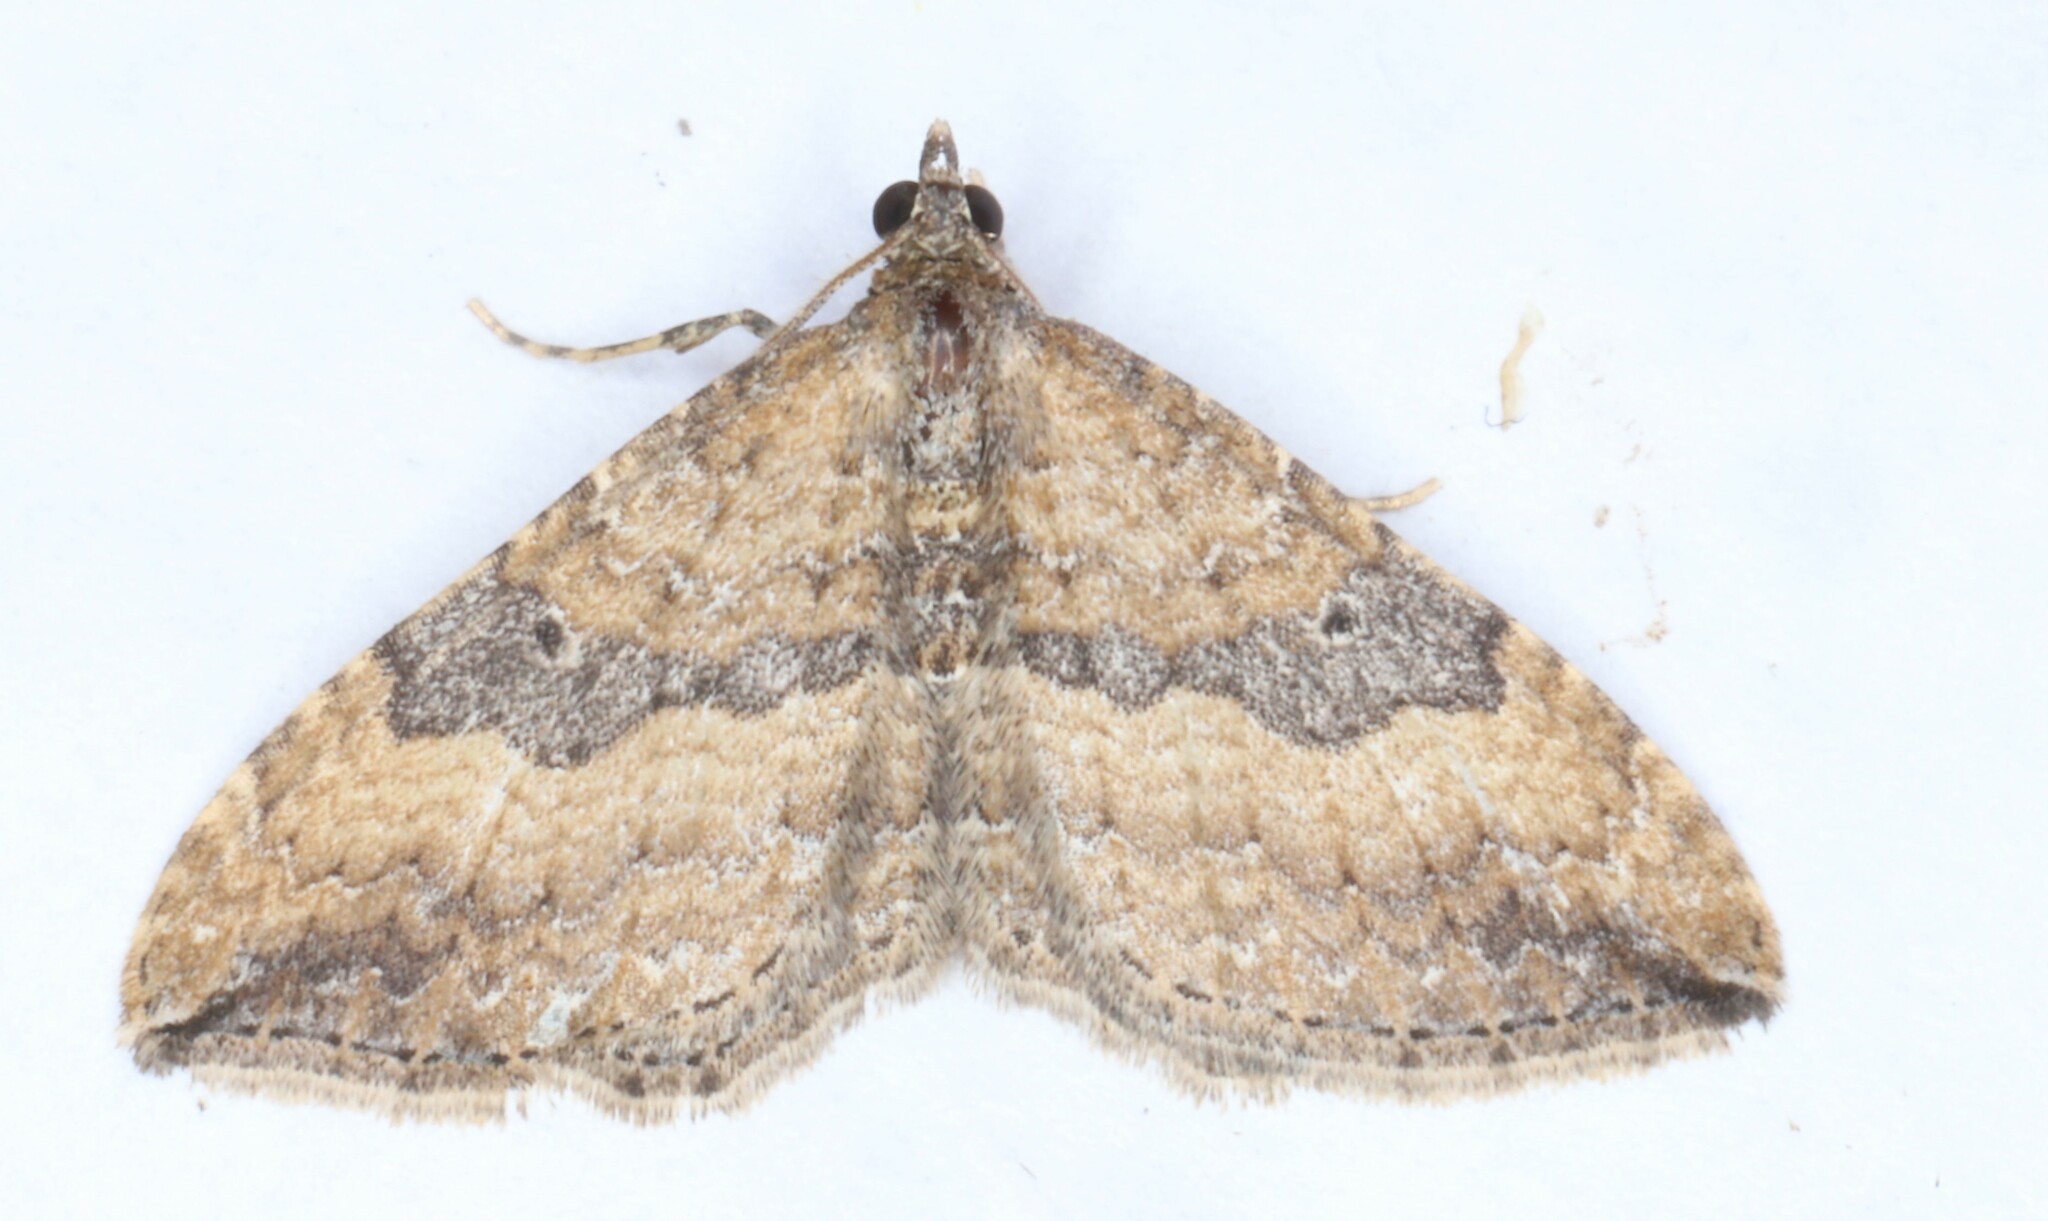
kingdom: Animalia
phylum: Arthropoda
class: Insecta
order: Lepidoptera
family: Geometridae
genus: Orthonama
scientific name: Orthonama obstipata
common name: The gem
